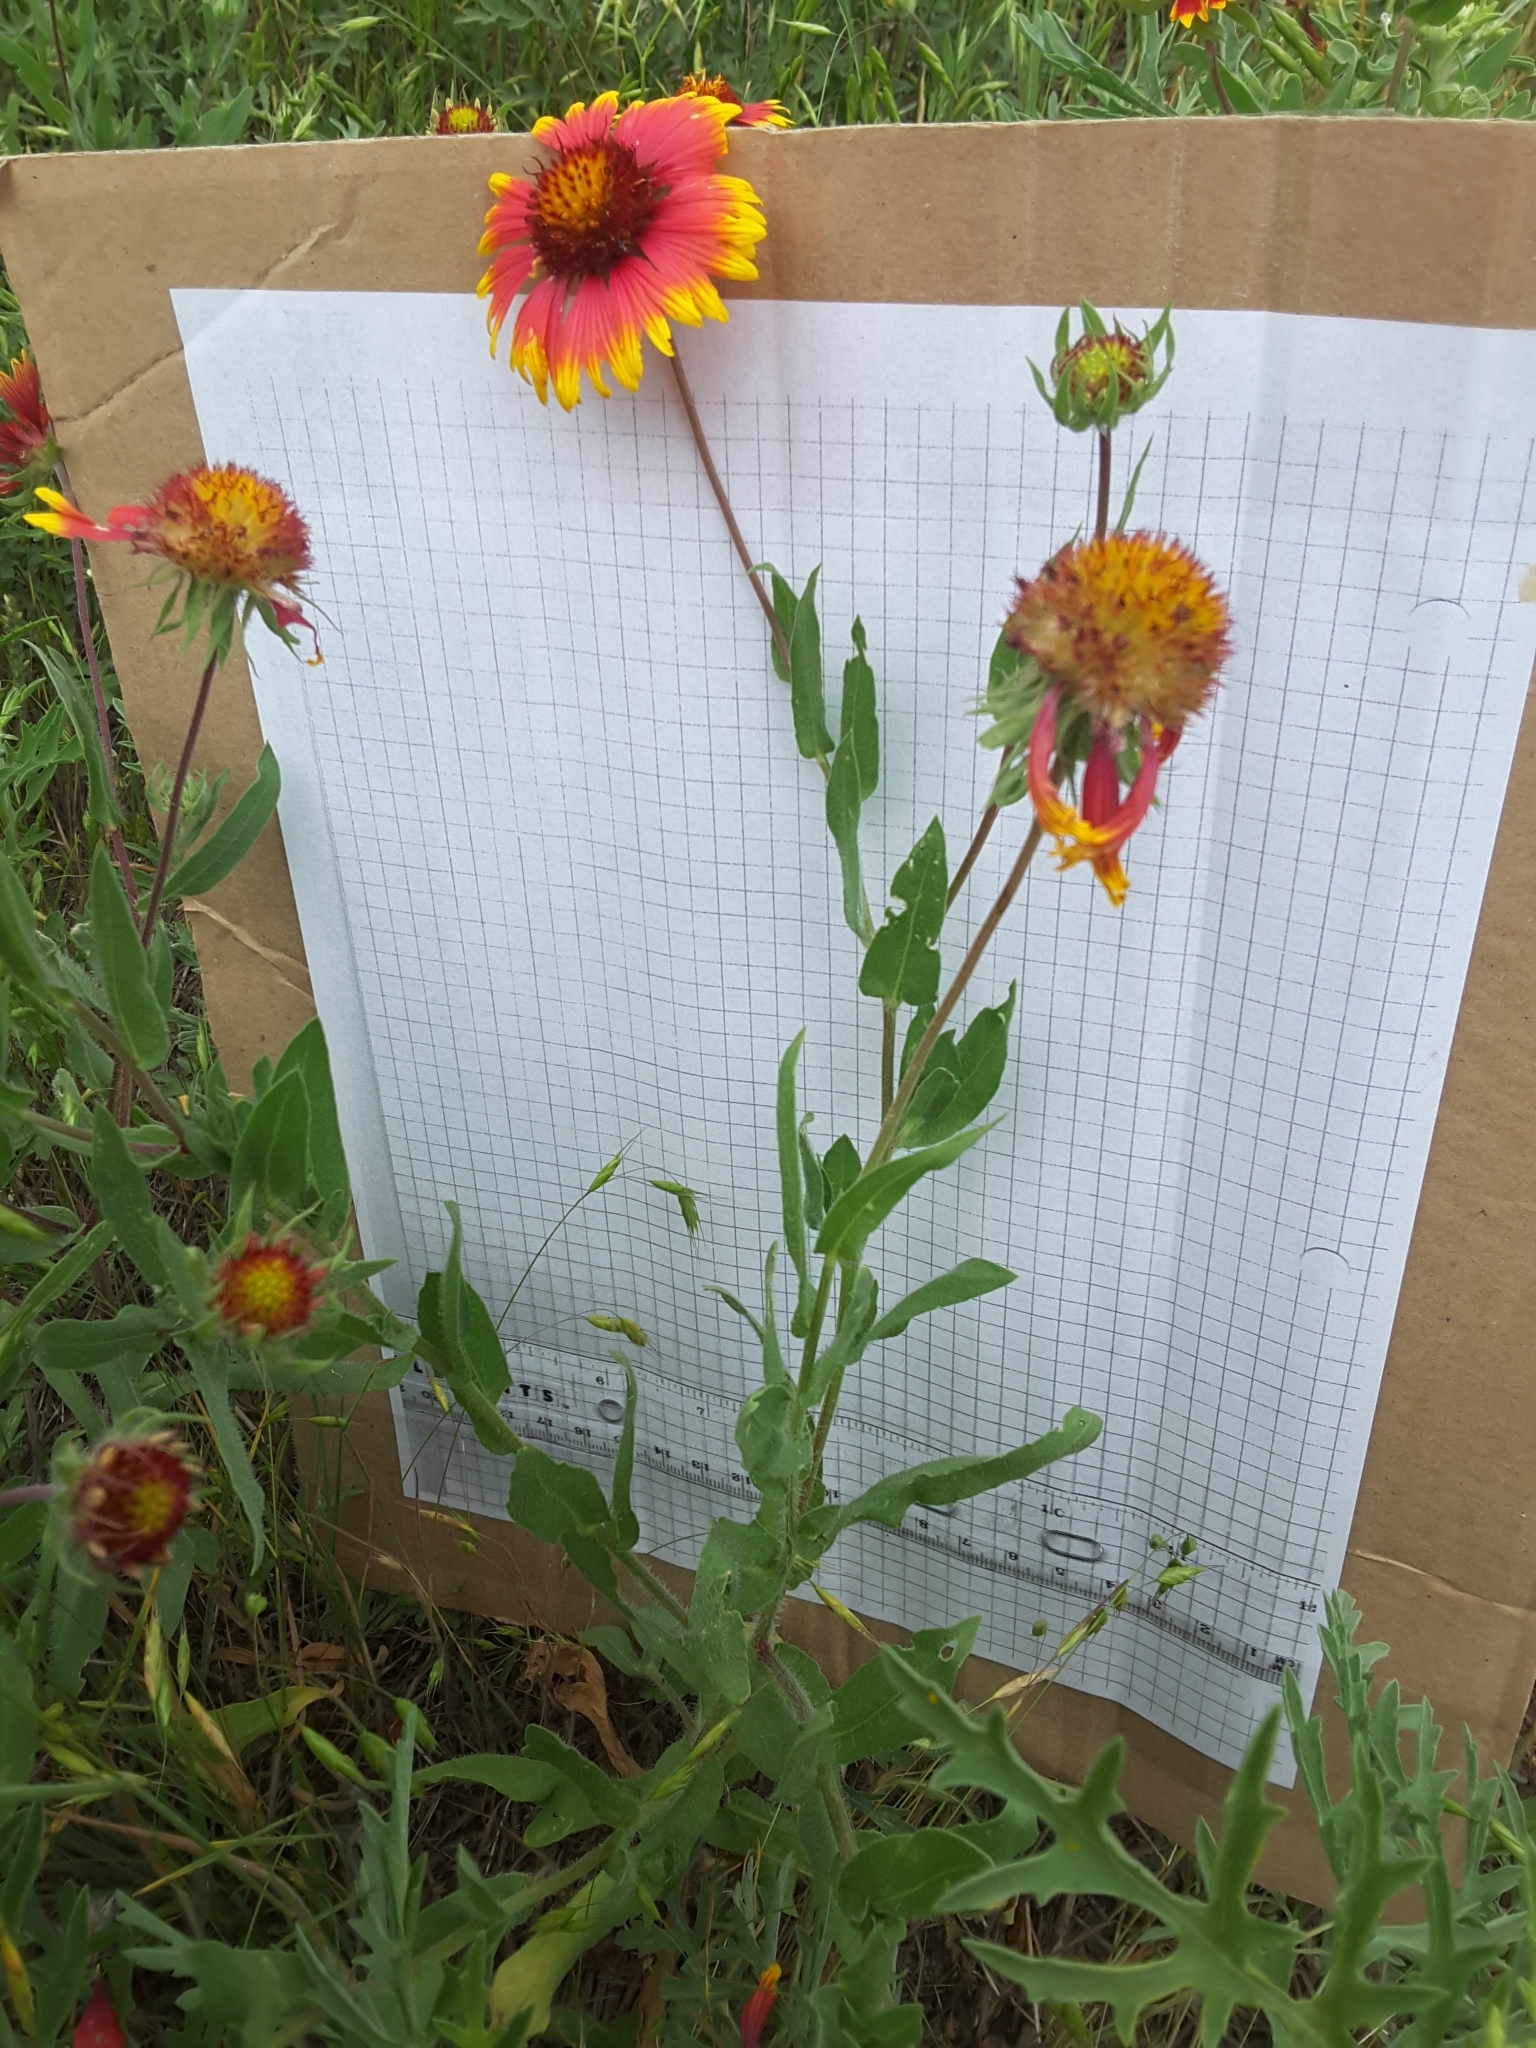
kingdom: Plantae
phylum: Tracheophyta
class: Magnoliopsida
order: Asterales
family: Asteraceae
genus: Gaillardia
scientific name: Gaillardia pulchella
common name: Firewheel
